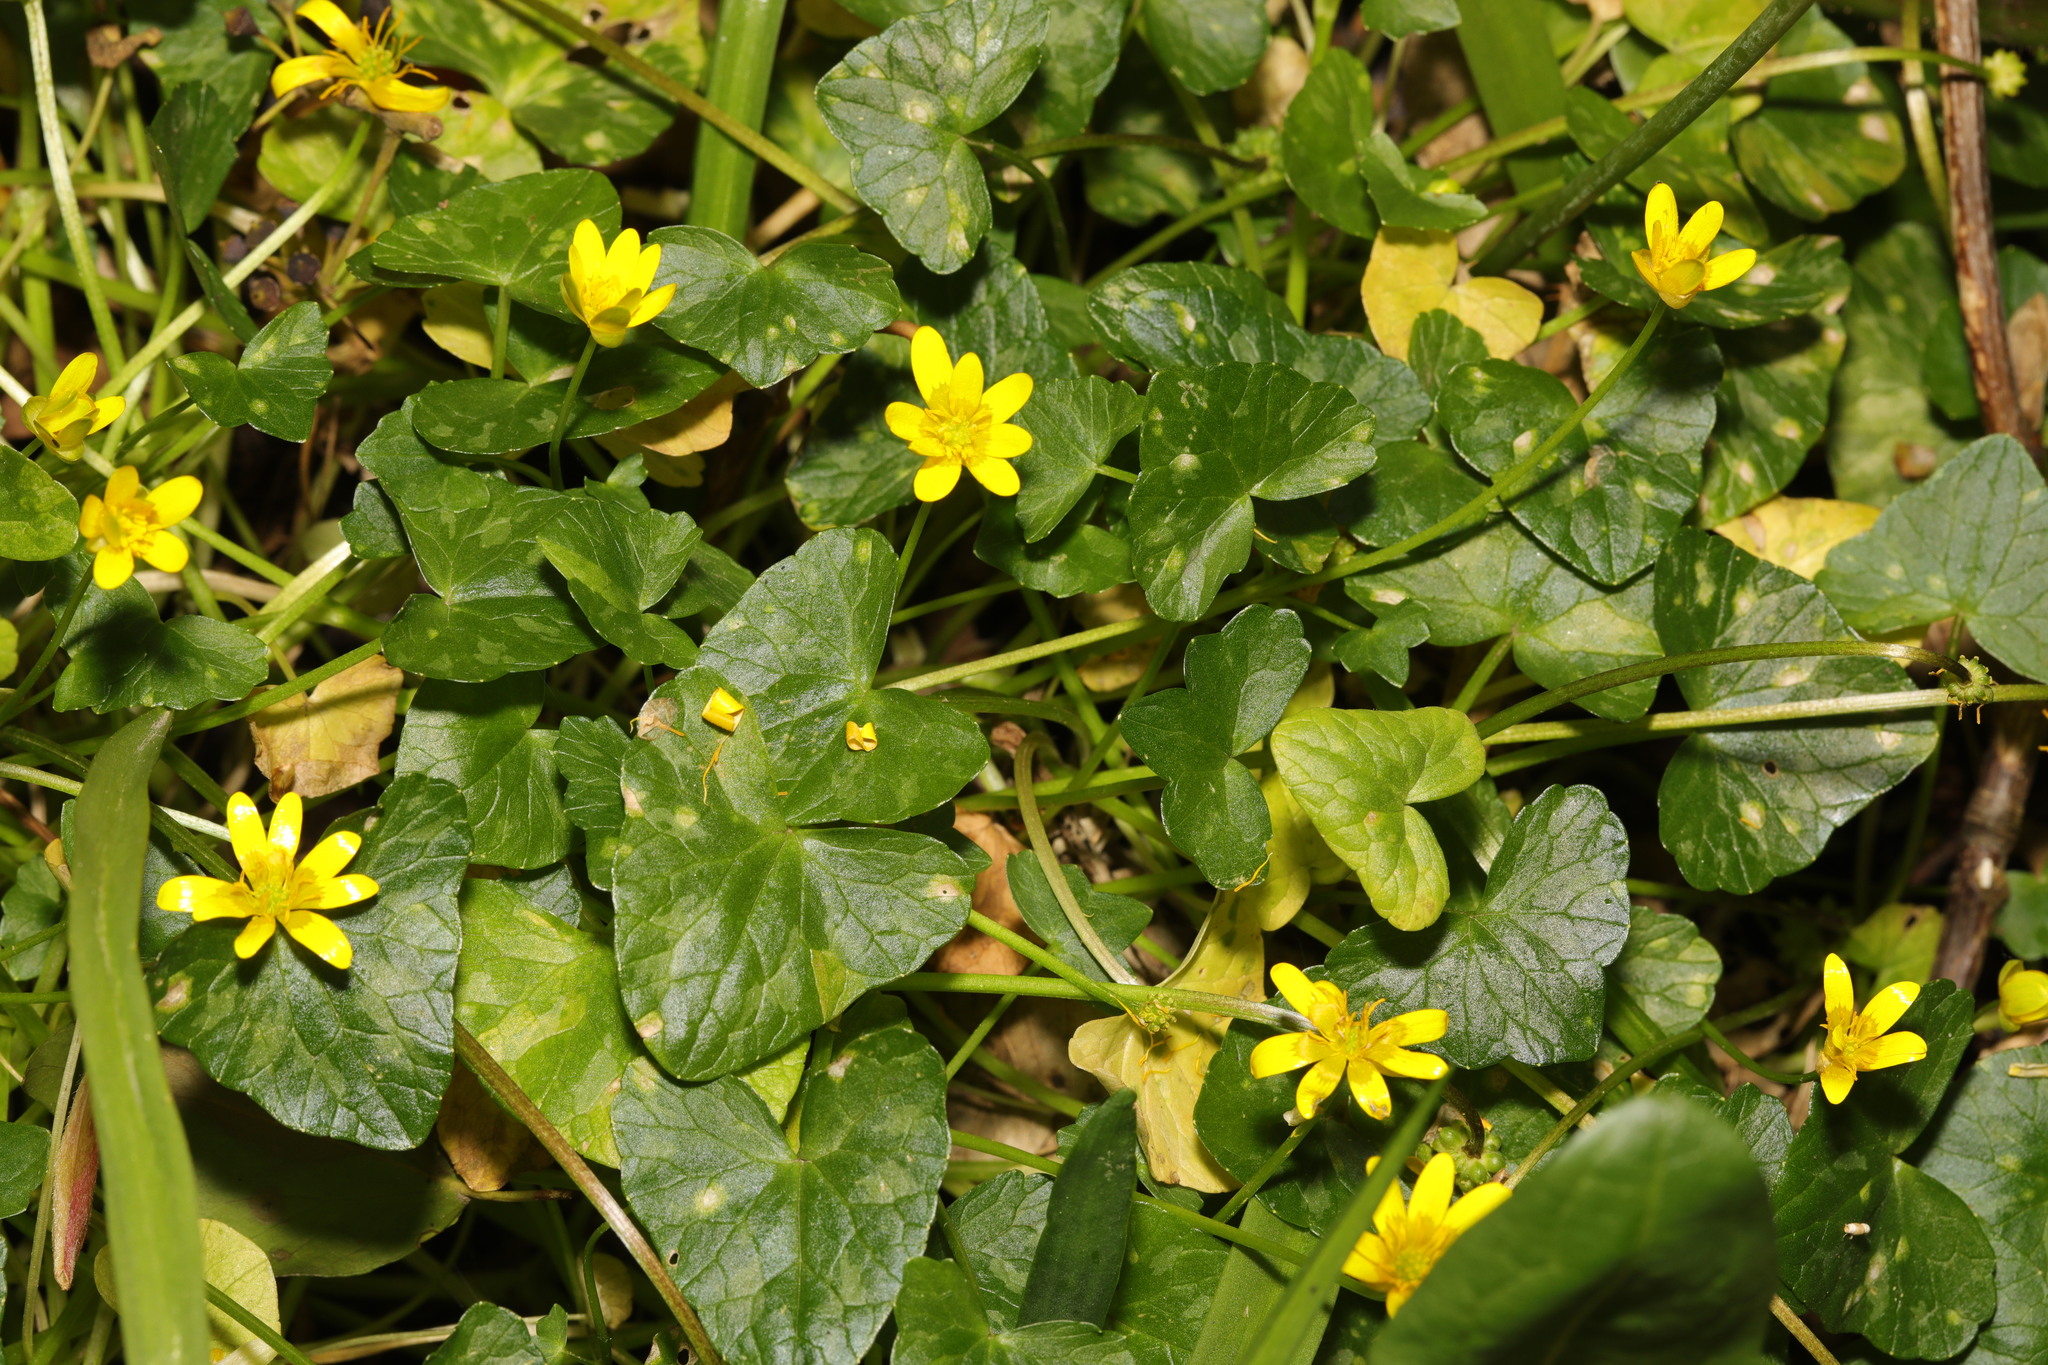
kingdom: Plantae
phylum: Tracheophyta
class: Magnoliopsida
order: Ranunculales
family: Ranunculaceae
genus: Ficaria
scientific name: Ficaria verna
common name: Lesser celandine
